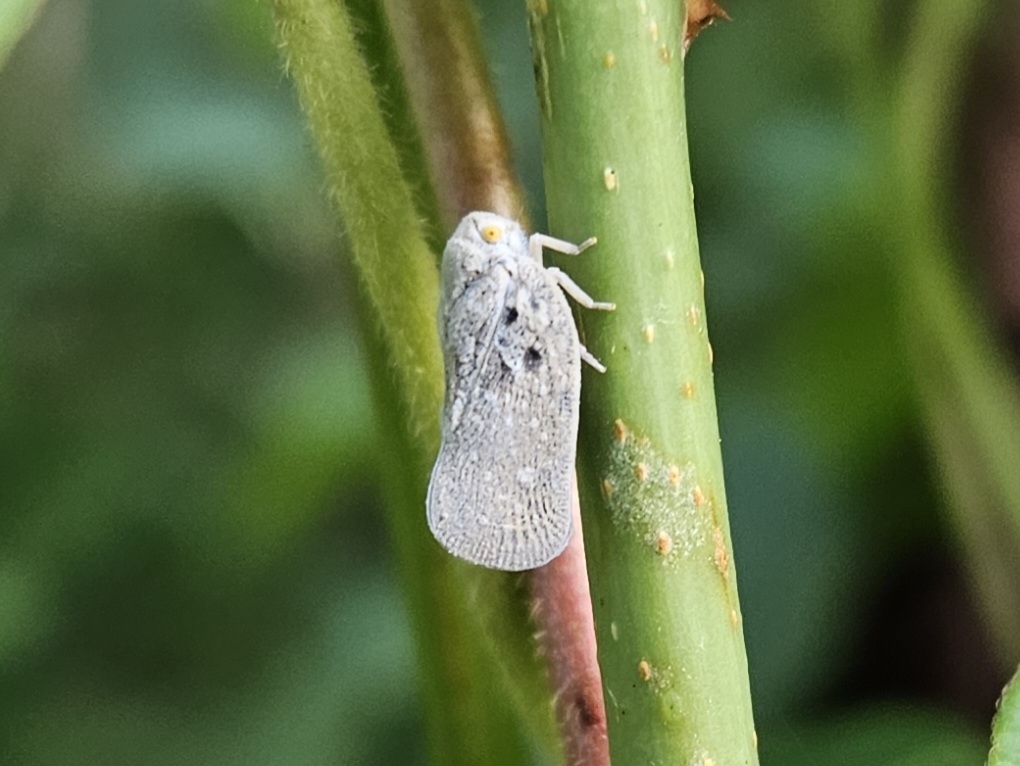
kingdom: Animalia
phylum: Arthropoda
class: Insecta
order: Hemiptera
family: Flatidae
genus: Metcalfa
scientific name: Metcalfa pruinosa
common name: Citrus flatid planthopper
